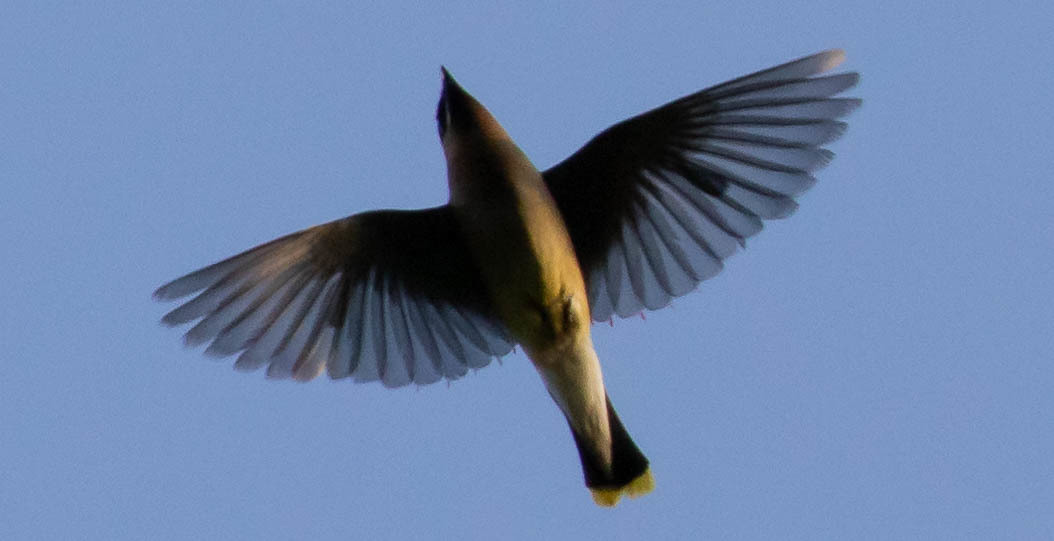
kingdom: Animalia
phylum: Chordata
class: Aves
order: Passeriformes
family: Bombycillidae
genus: Bombycilla
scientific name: Bombycilla cedrorum
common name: Cedar waxwing
